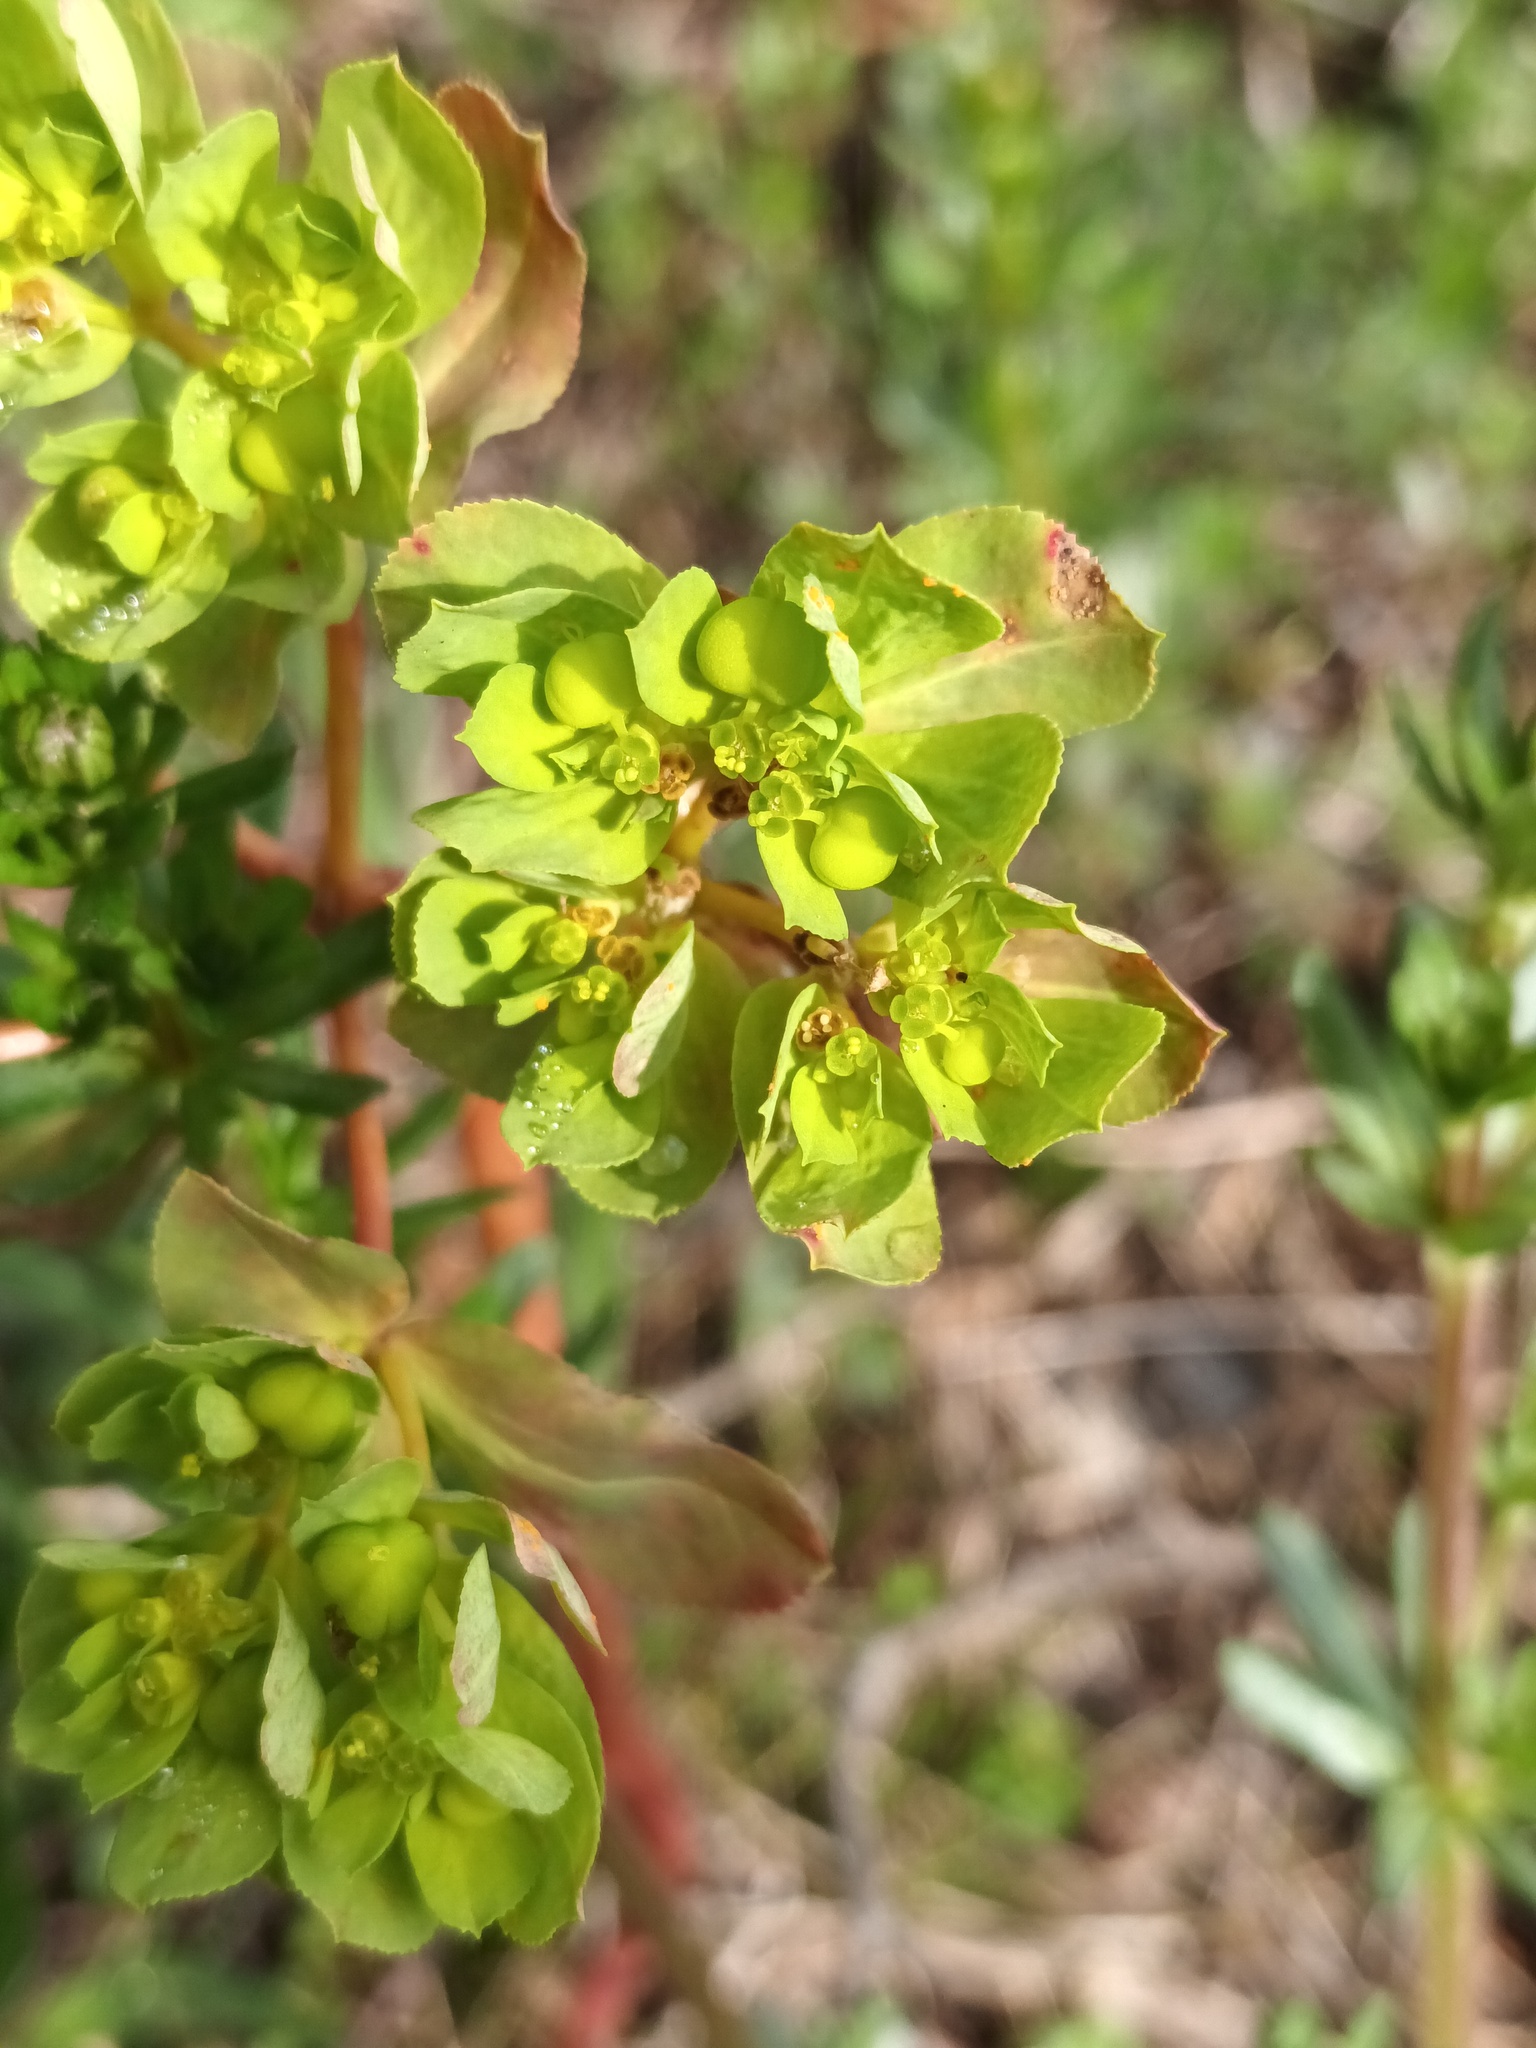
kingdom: Plantae
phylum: Tracheophyta
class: Magnoliopsida
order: Malpighiales
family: Euphorbiaceae
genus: Euphorbia
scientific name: Euphorbia helioscopia
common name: Sun spurge
